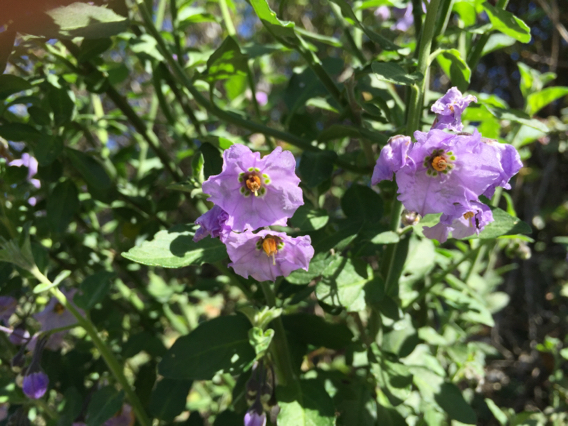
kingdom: Plantae
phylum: Tracheophyta
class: Magnoliopsida
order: Solanales
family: Solanaceae
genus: Solanum
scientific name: Solanum umbelliferum
